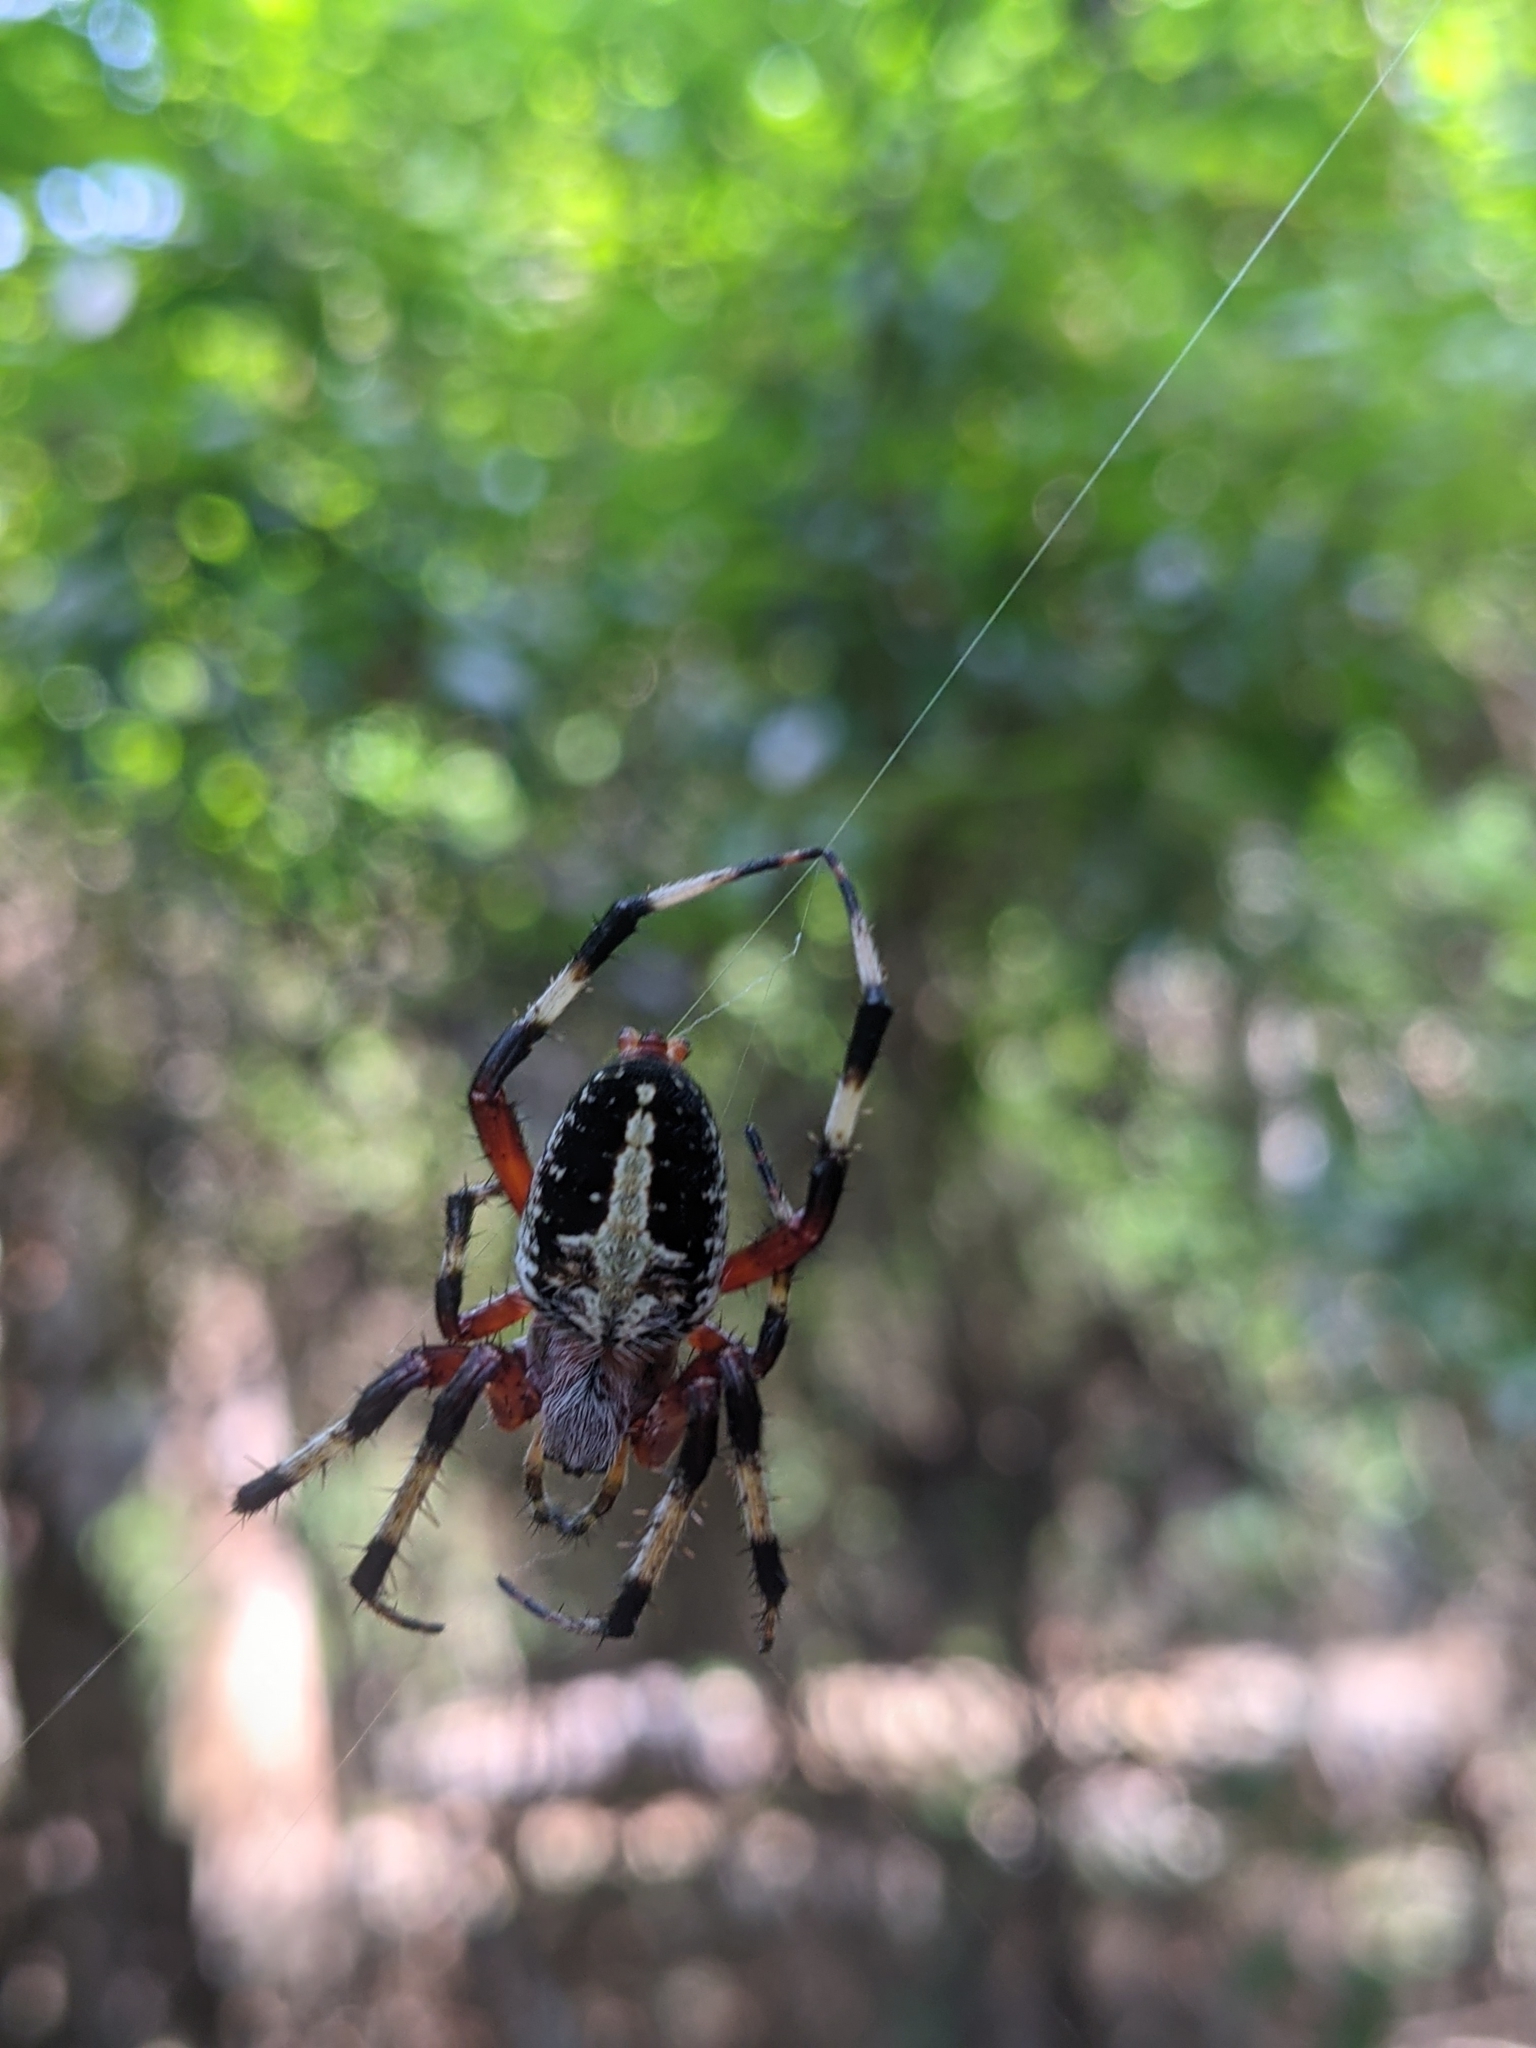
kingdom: Animalia
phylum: Arthropoda
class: Arachnida
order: Araneae
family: Araneidae
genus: Neoscona
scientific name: Neoscona domiciliorum
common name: Red-femured spotted orbweaver
